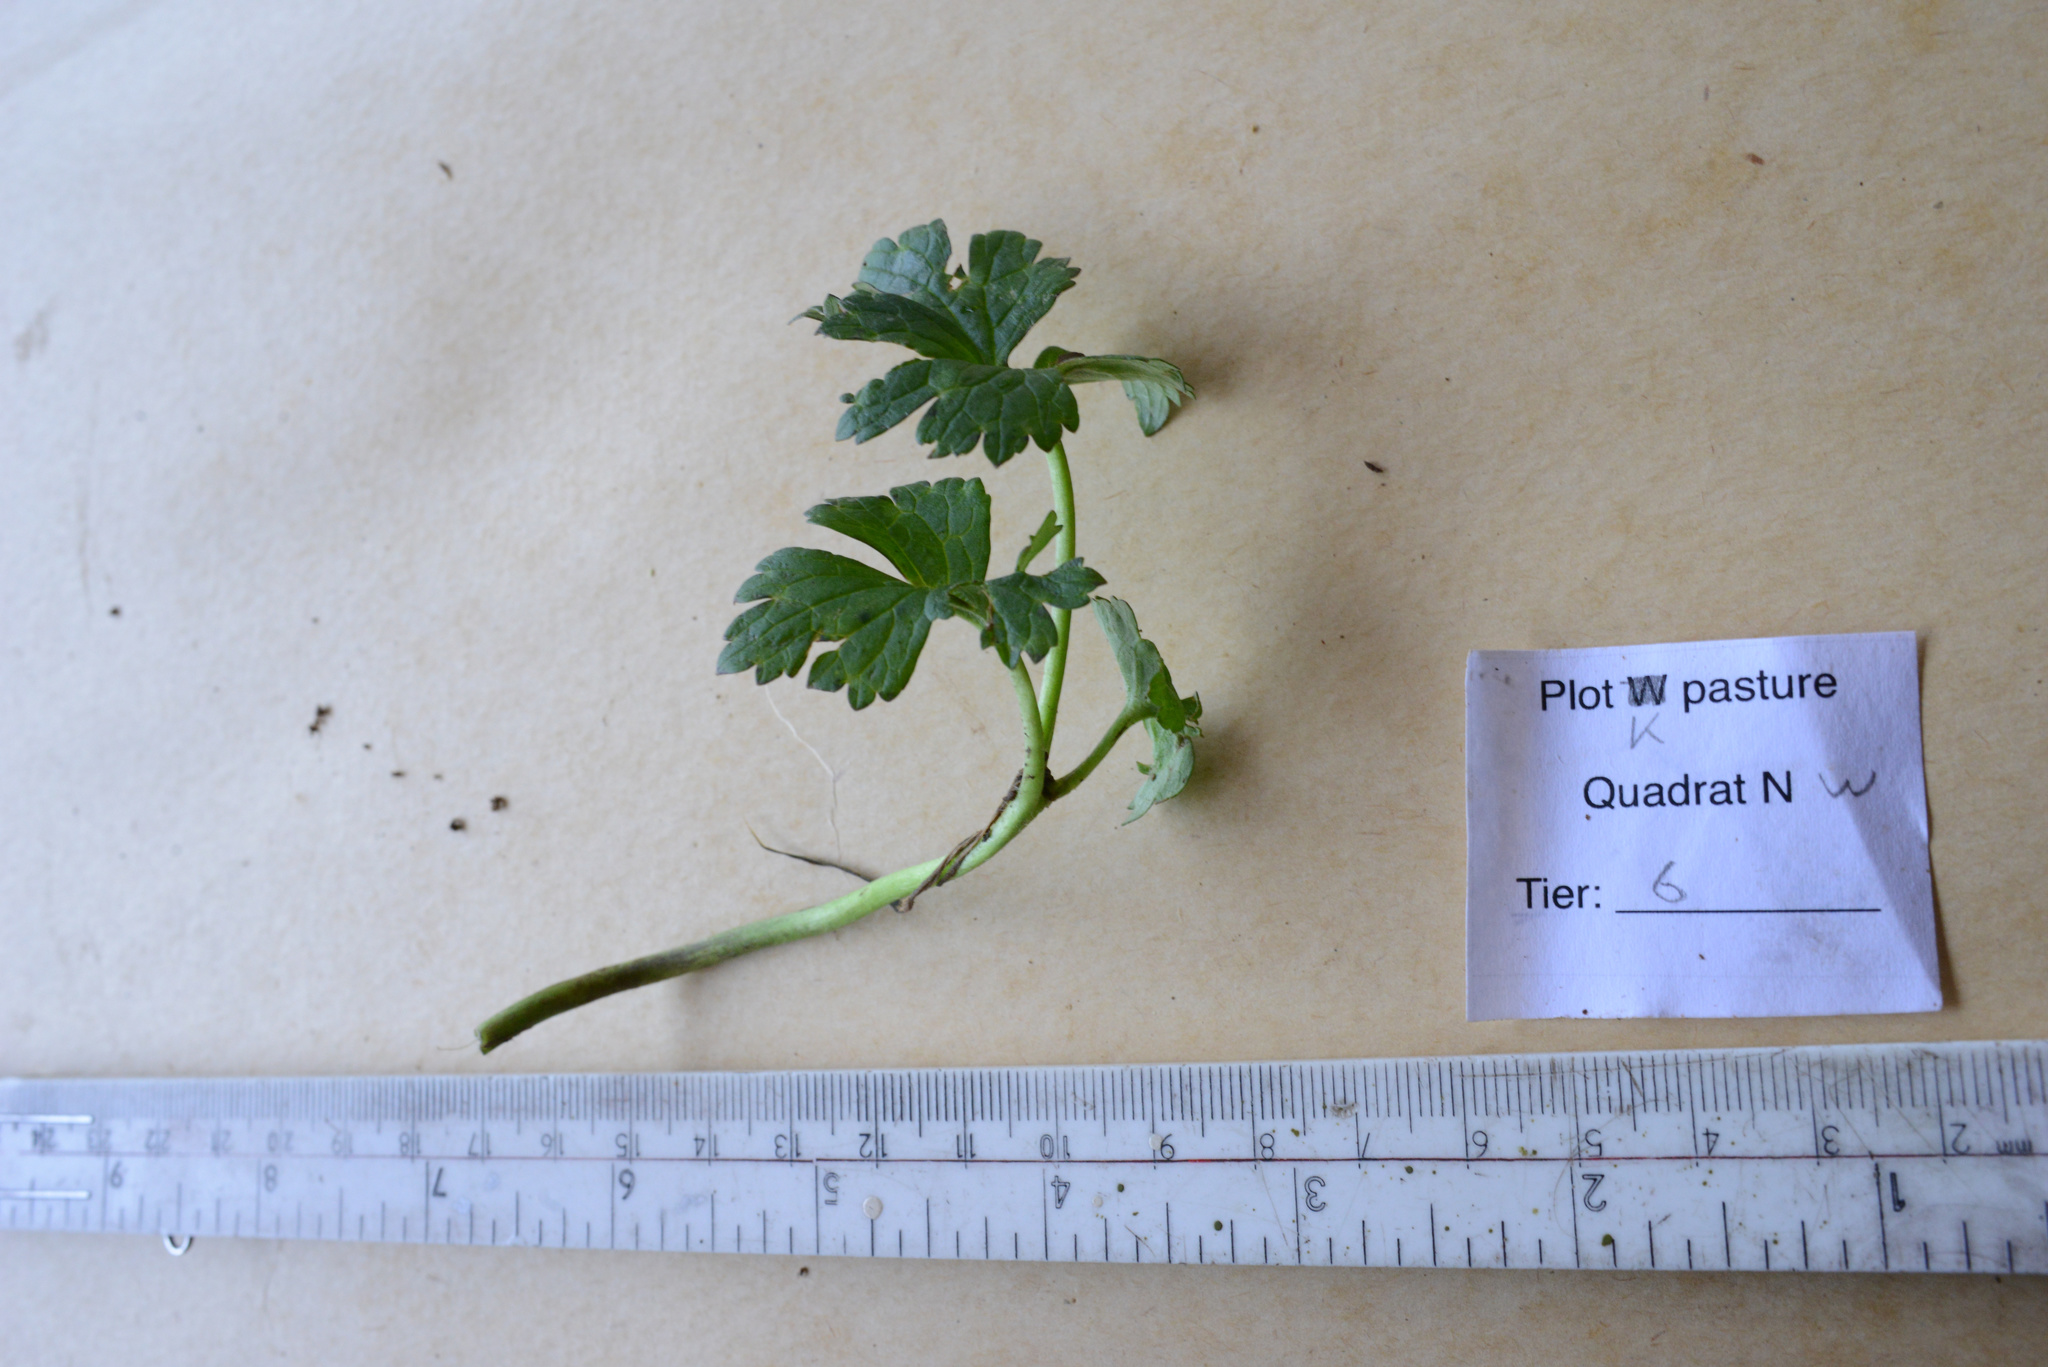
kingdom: Plantae
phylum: Tracheophyta
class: Magnoliopsida
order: Ranunculales
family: Ranunculaceae
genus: Ranunculus
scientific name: Ranunculus repens
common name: Creeping buttercup
